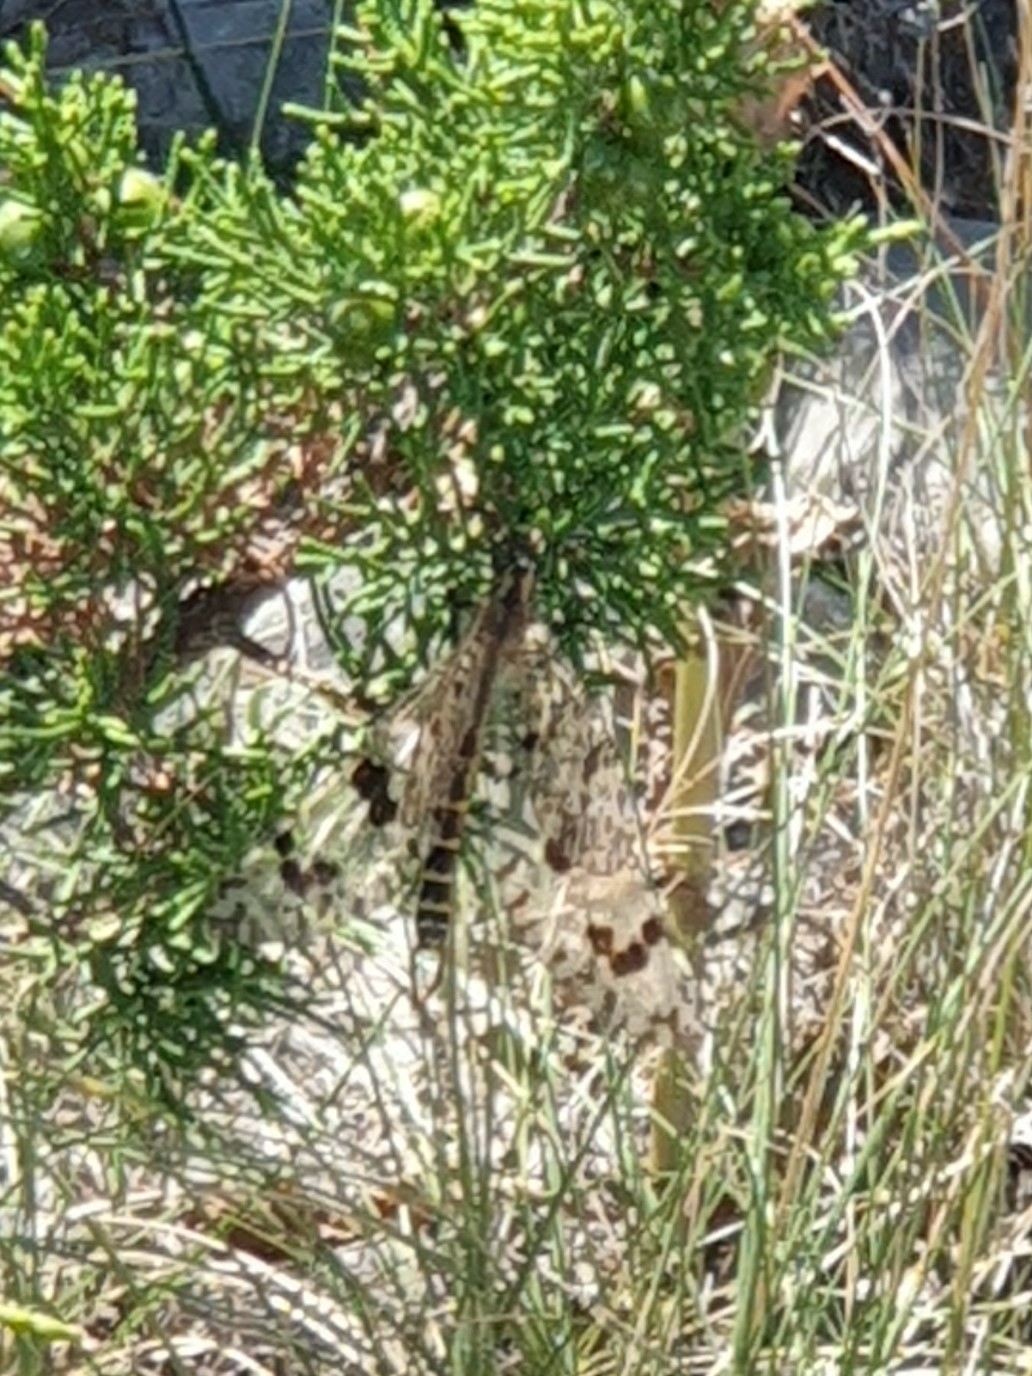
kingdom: Animalia
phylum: Arthropoda
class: Insecta
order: Neuroptera
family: Myrmeleontidae
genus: Palpares
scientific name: Palpares libelluloides
